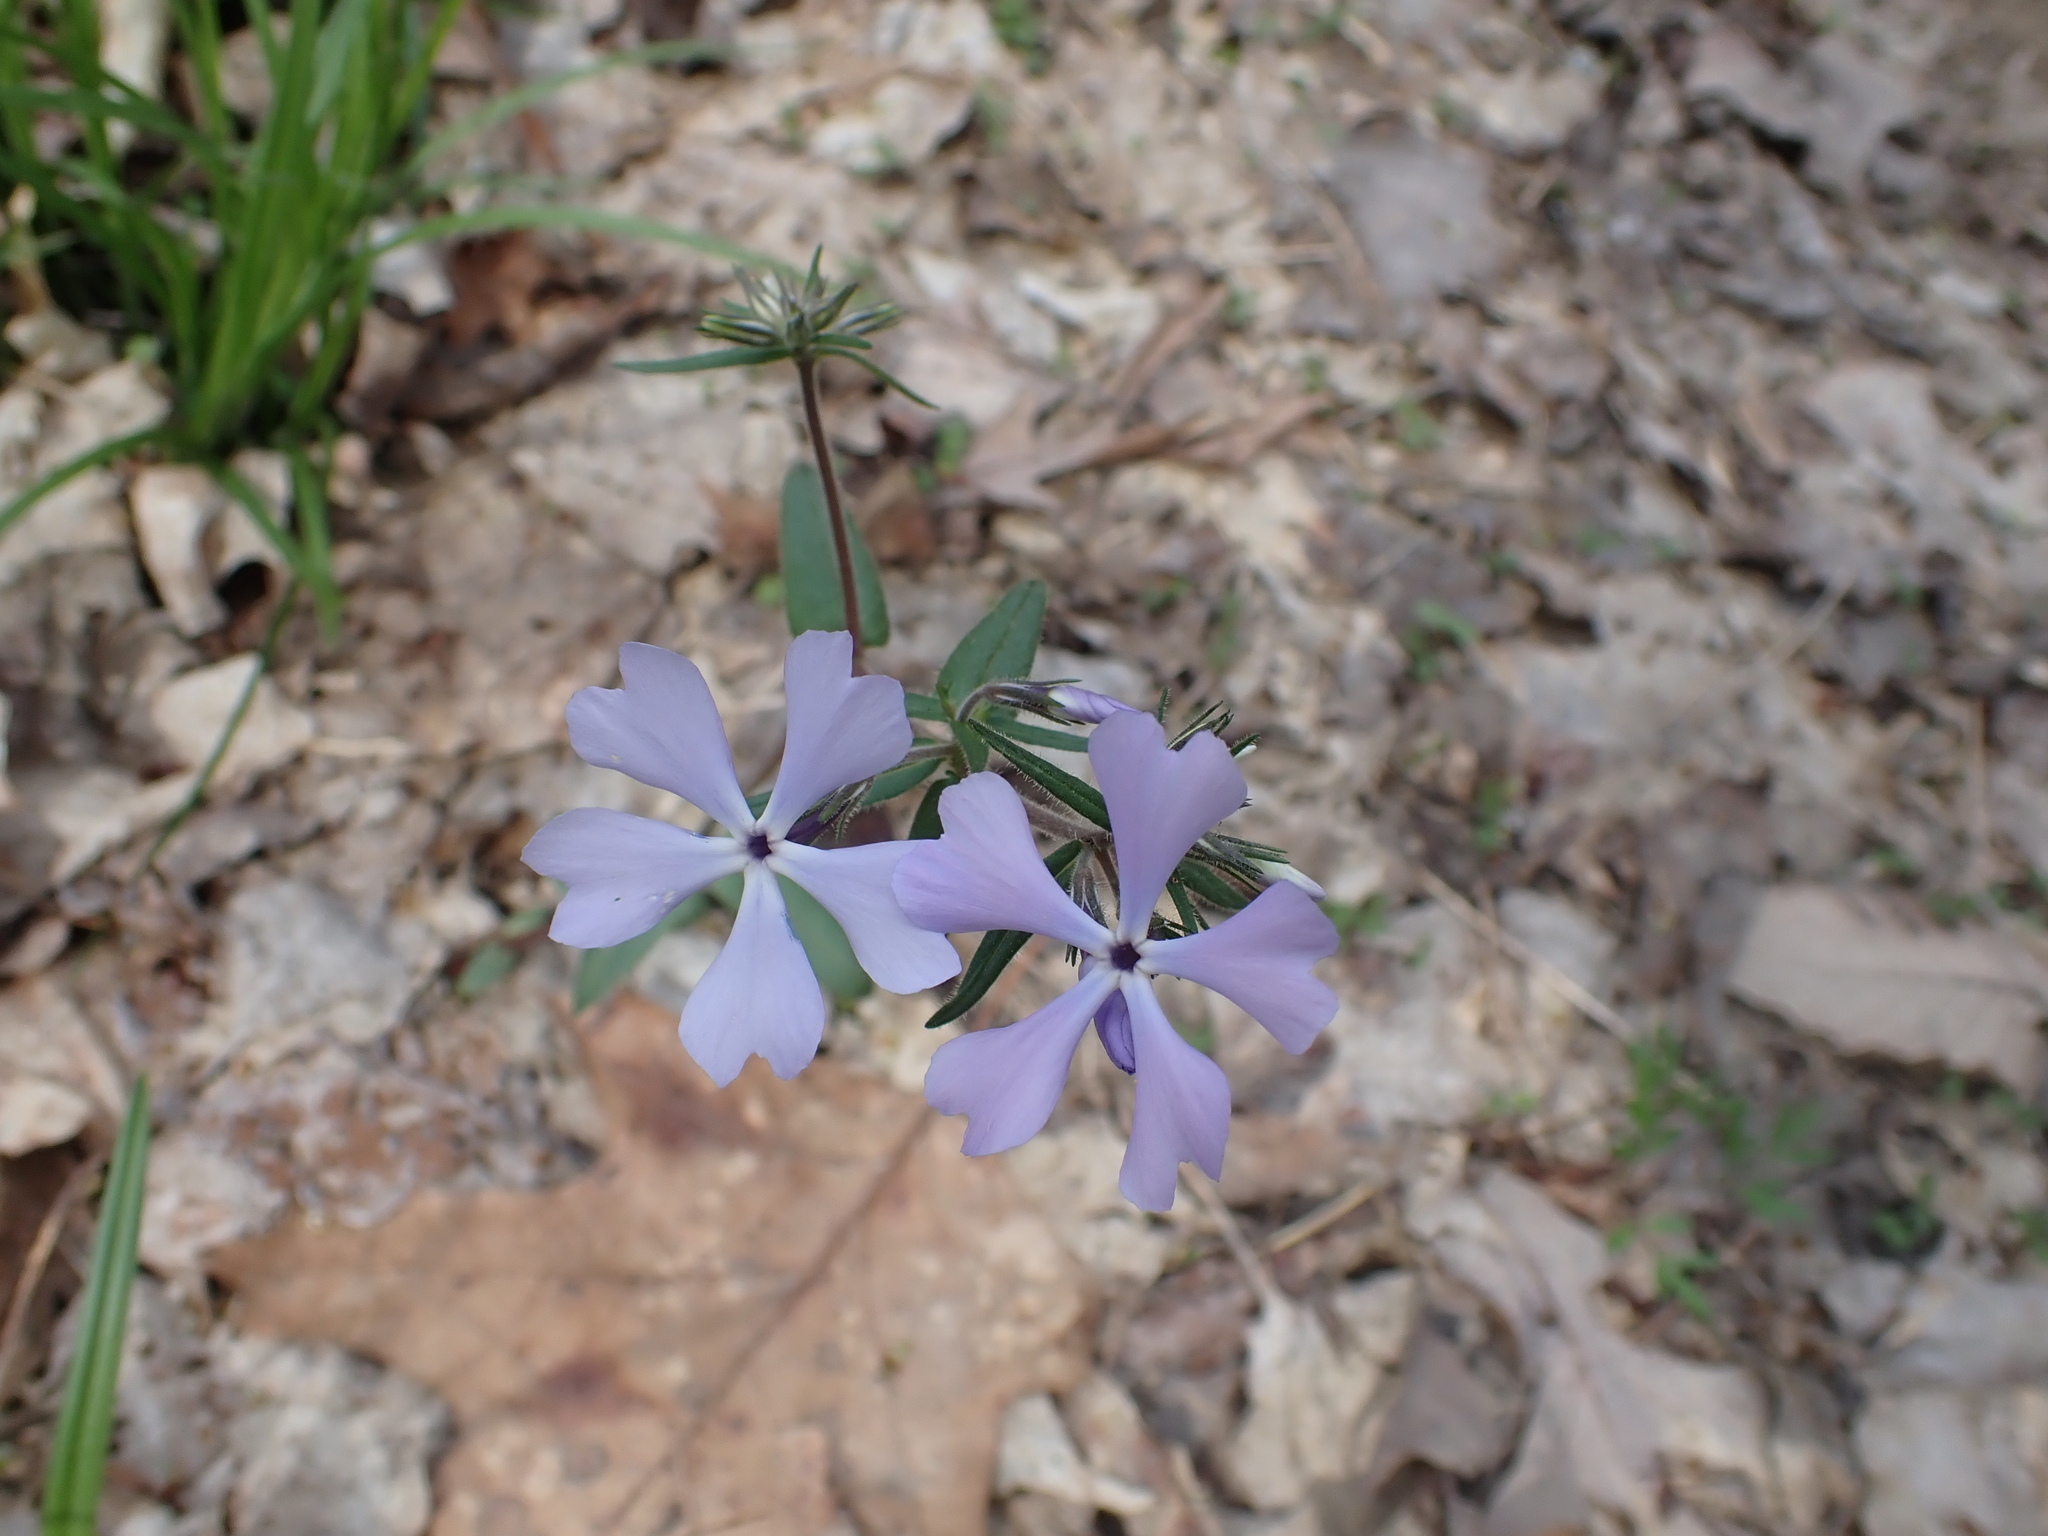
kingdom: Plantae
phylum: Tracheophyta
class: Magnoliopsida
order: Ericales
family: Polemoniaceae
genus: Phlox
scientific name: Phlox divaricata
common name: Blue phlox
